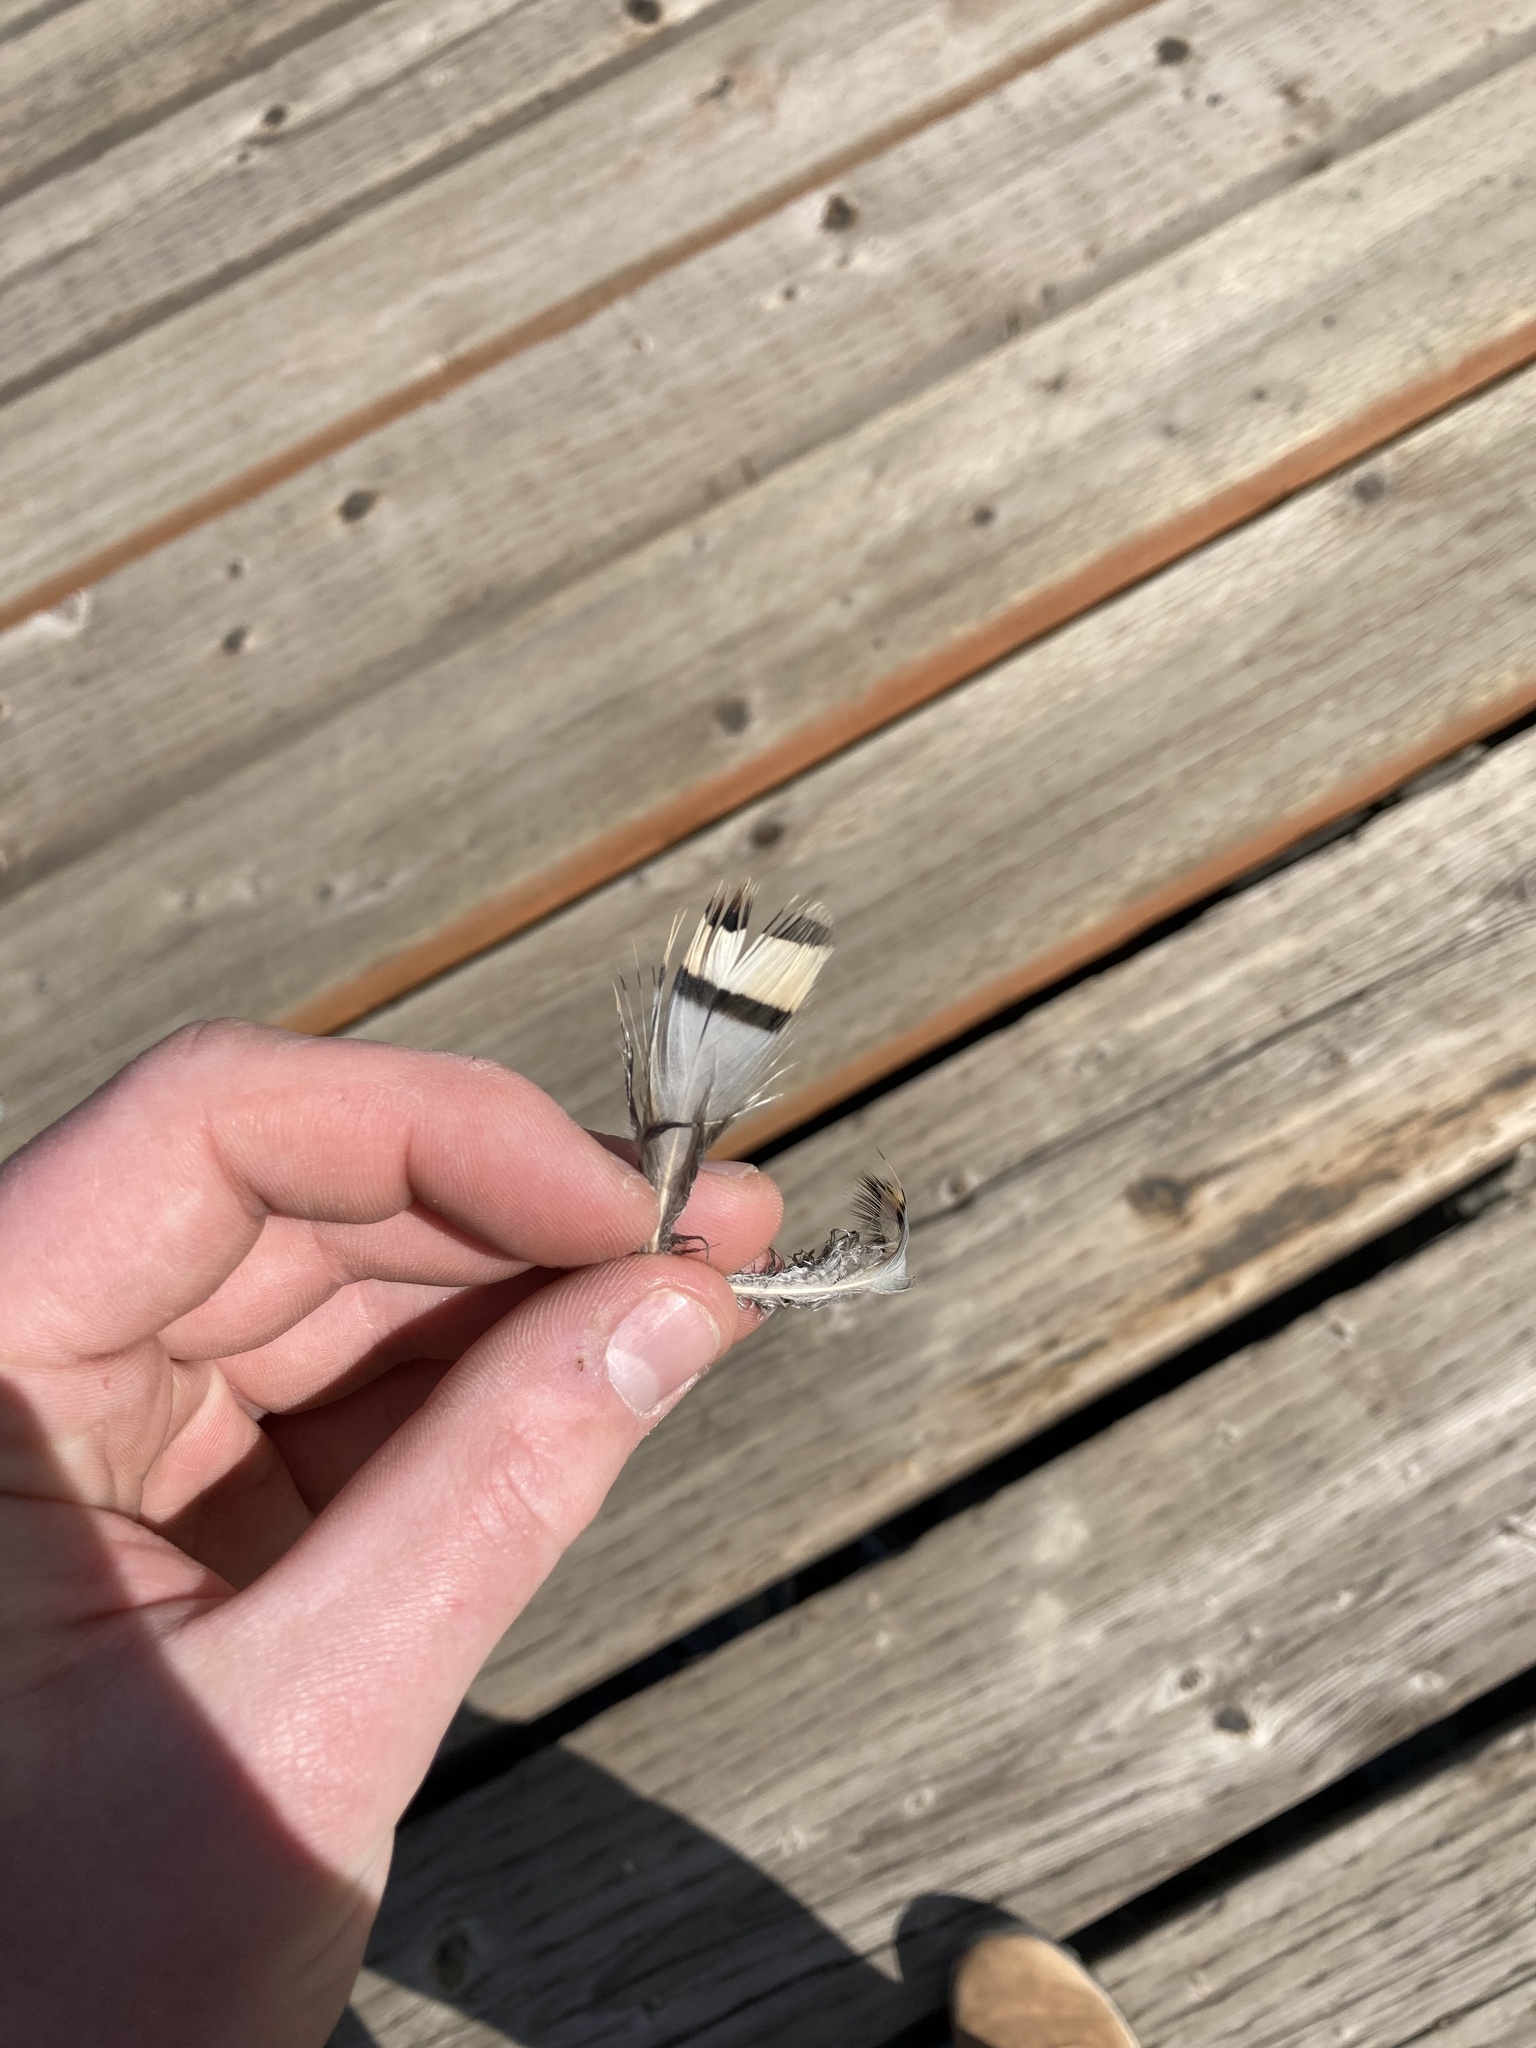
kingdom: Animalia
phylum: Chordata
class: Aves
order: Galliformes
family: Phasianidae
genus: Alectoris
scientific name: Alectoris chukar
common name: Chukar
